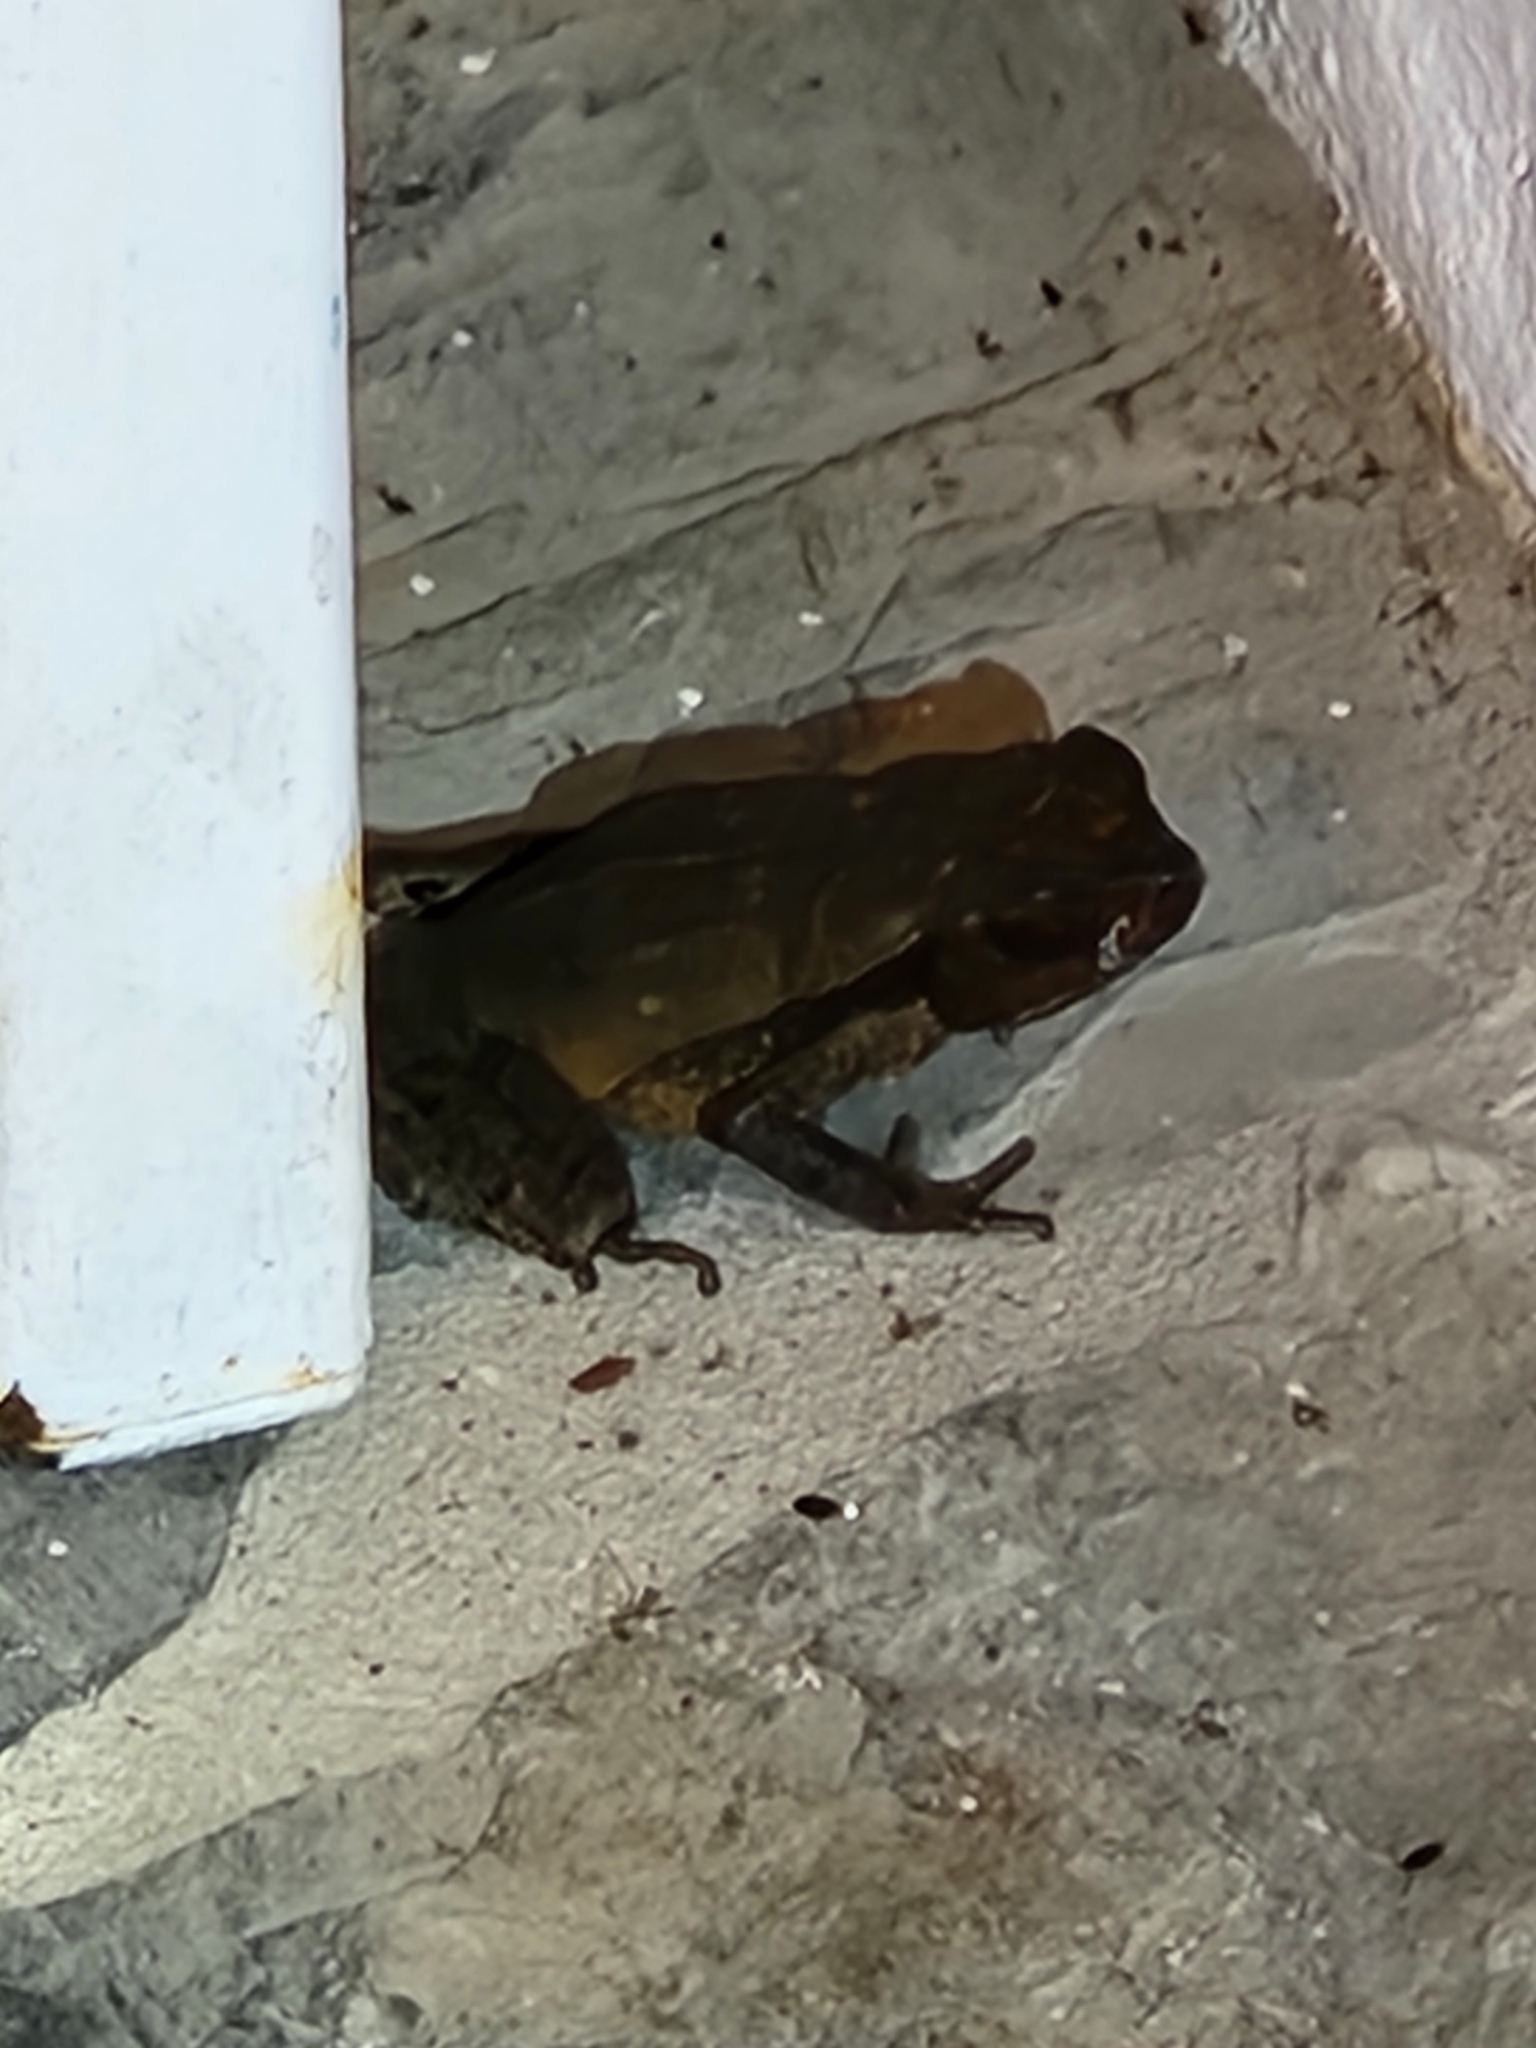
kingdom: Animalia
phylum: Chordata
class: Amphibia
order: Anura
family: Bufonidae
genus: Rhaebo
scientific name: Rhaebo haematiticus
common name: Truando toad
